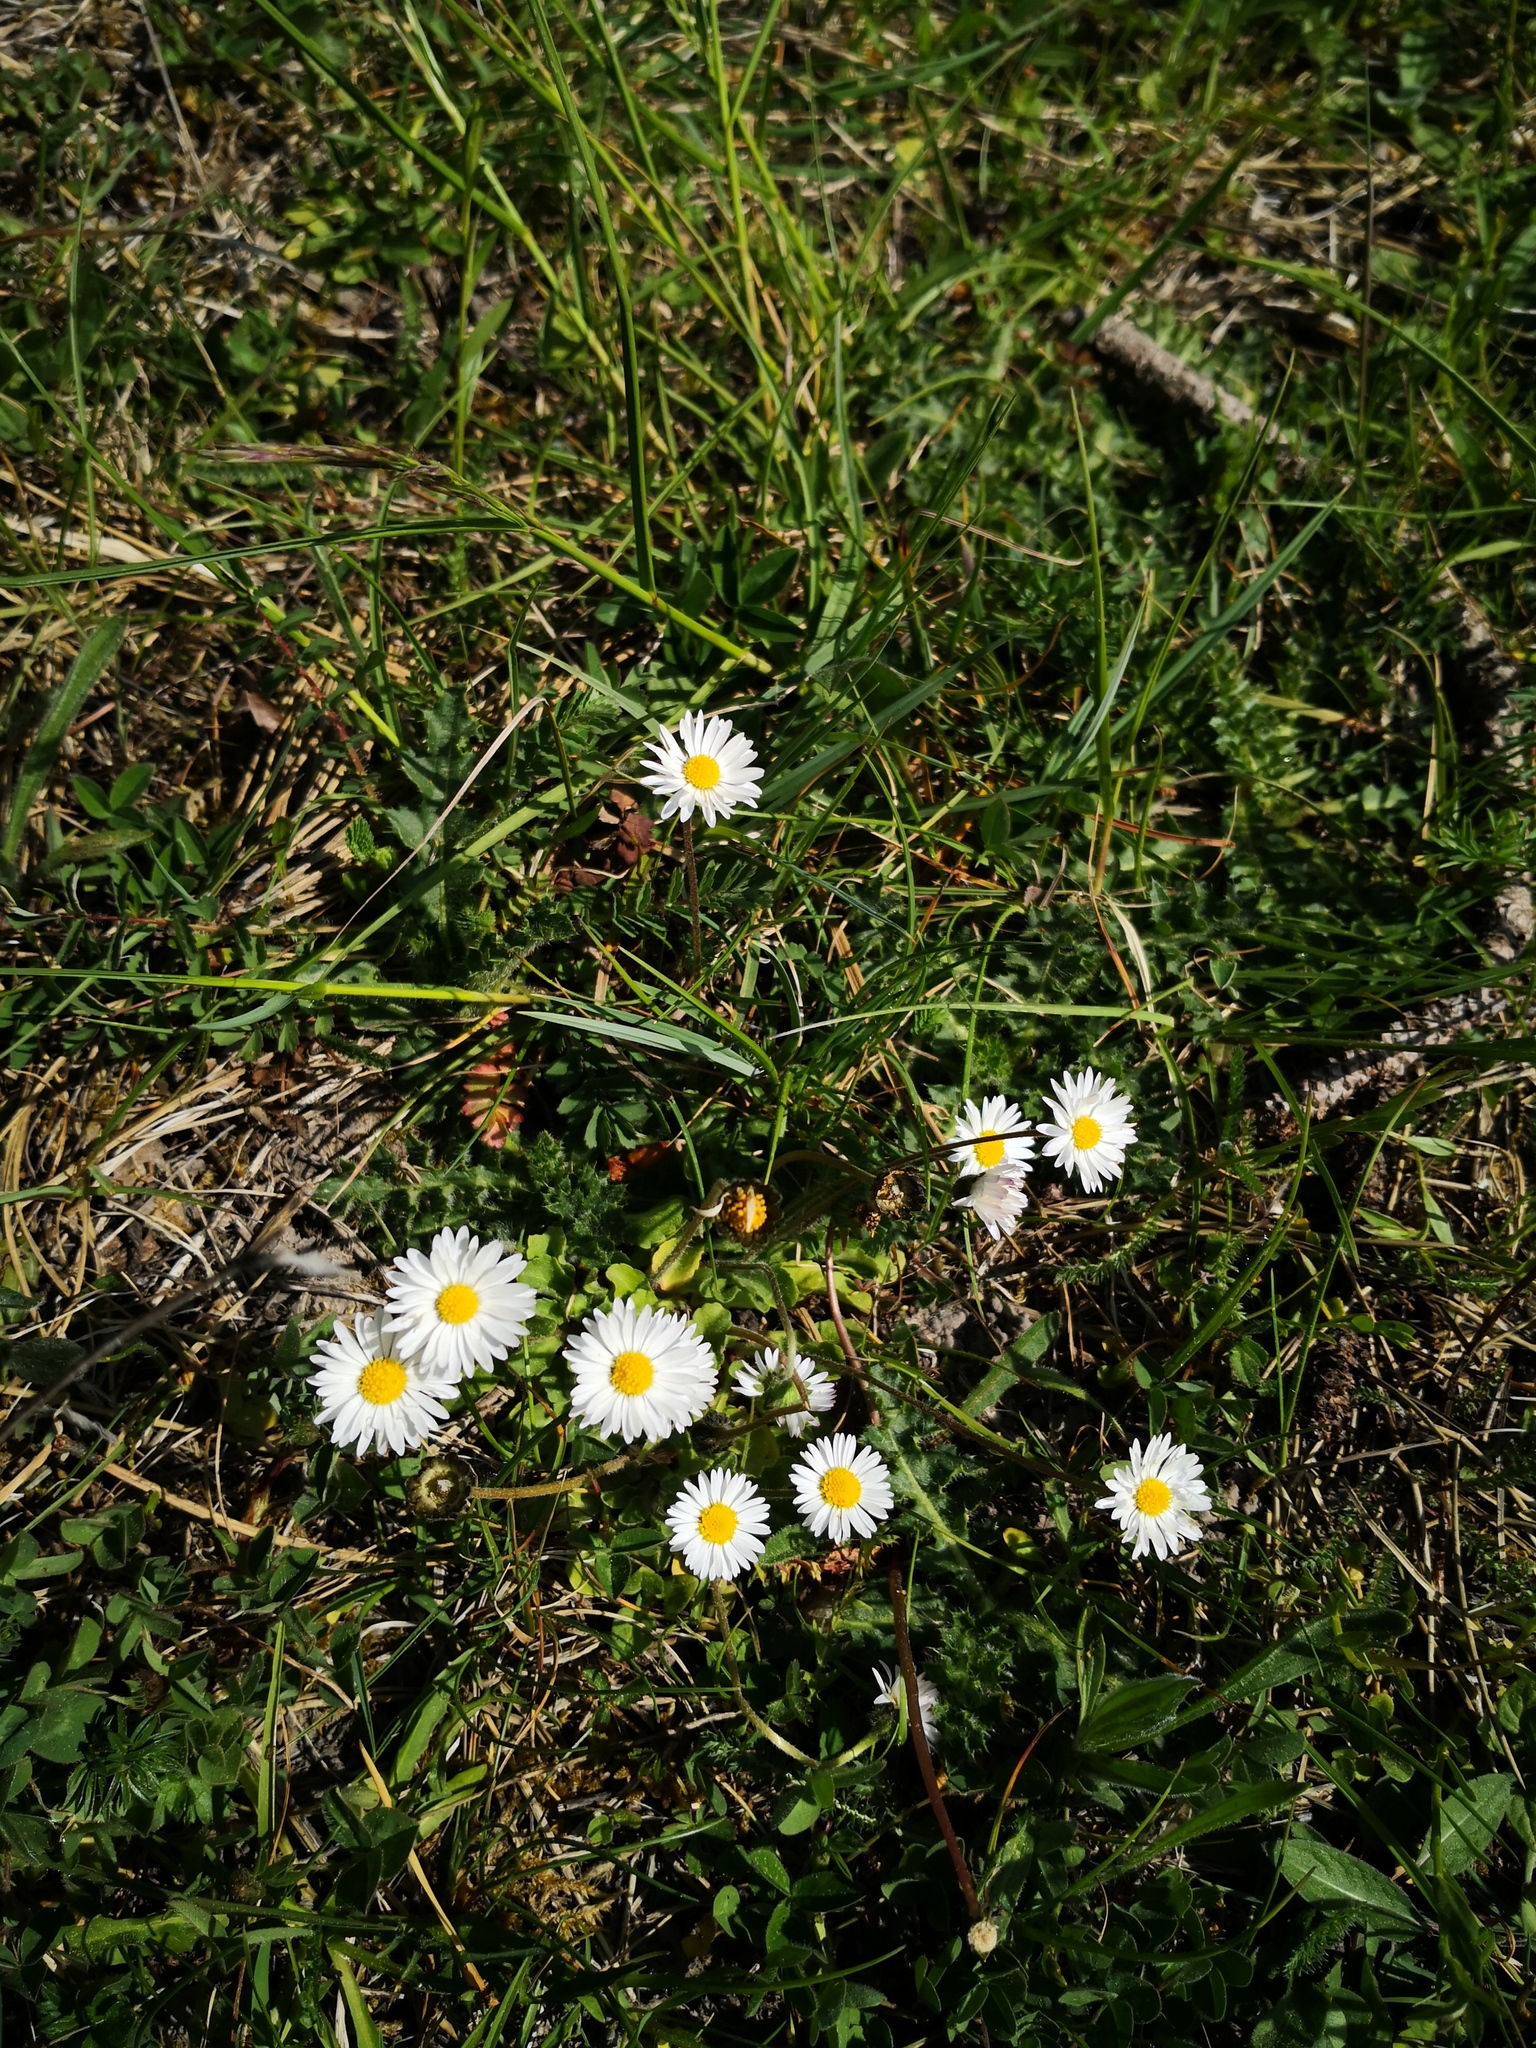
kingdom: Plantae
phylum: Tracheophyta
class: Magnoliopsida
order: Asterales
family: Asteraceae
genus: Bellis
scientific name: Bellis perennis
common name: Lawndaisy
